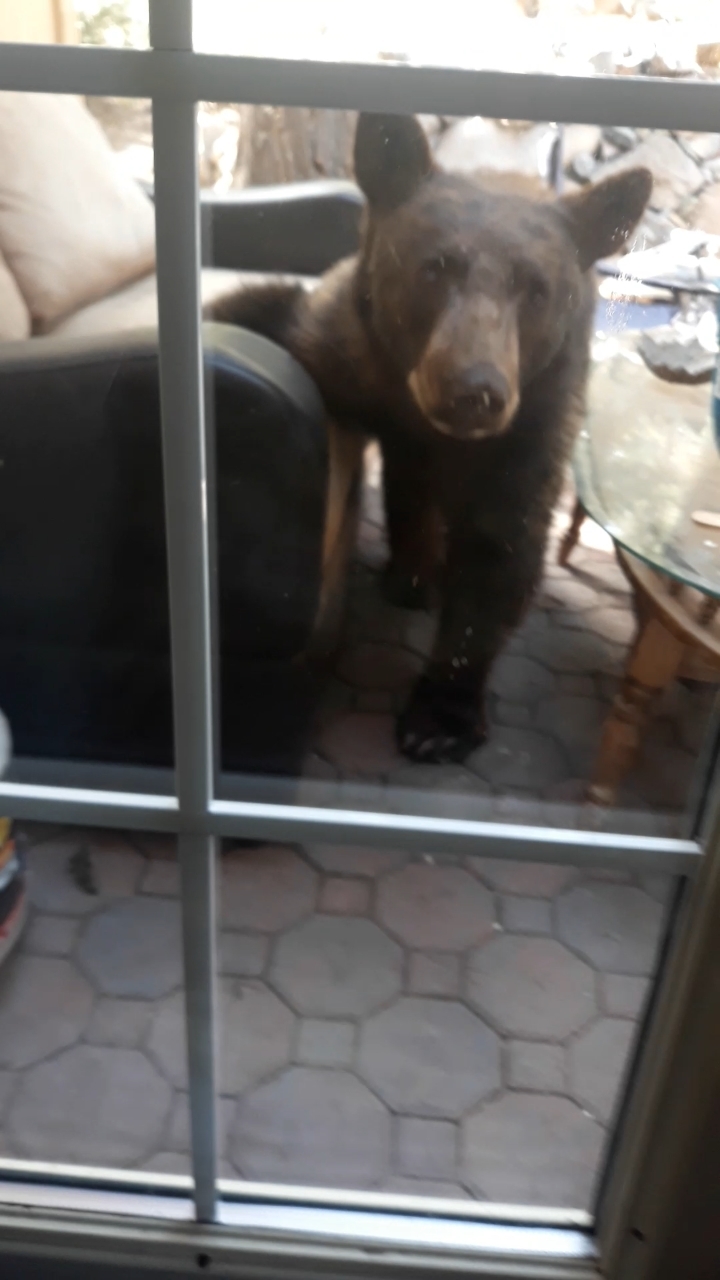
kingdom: Animalia
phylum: Chordata
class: Mammalia
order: Carnivora
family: Ursidae
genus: Ursus
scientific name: Ursus americanus
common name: American black bear
